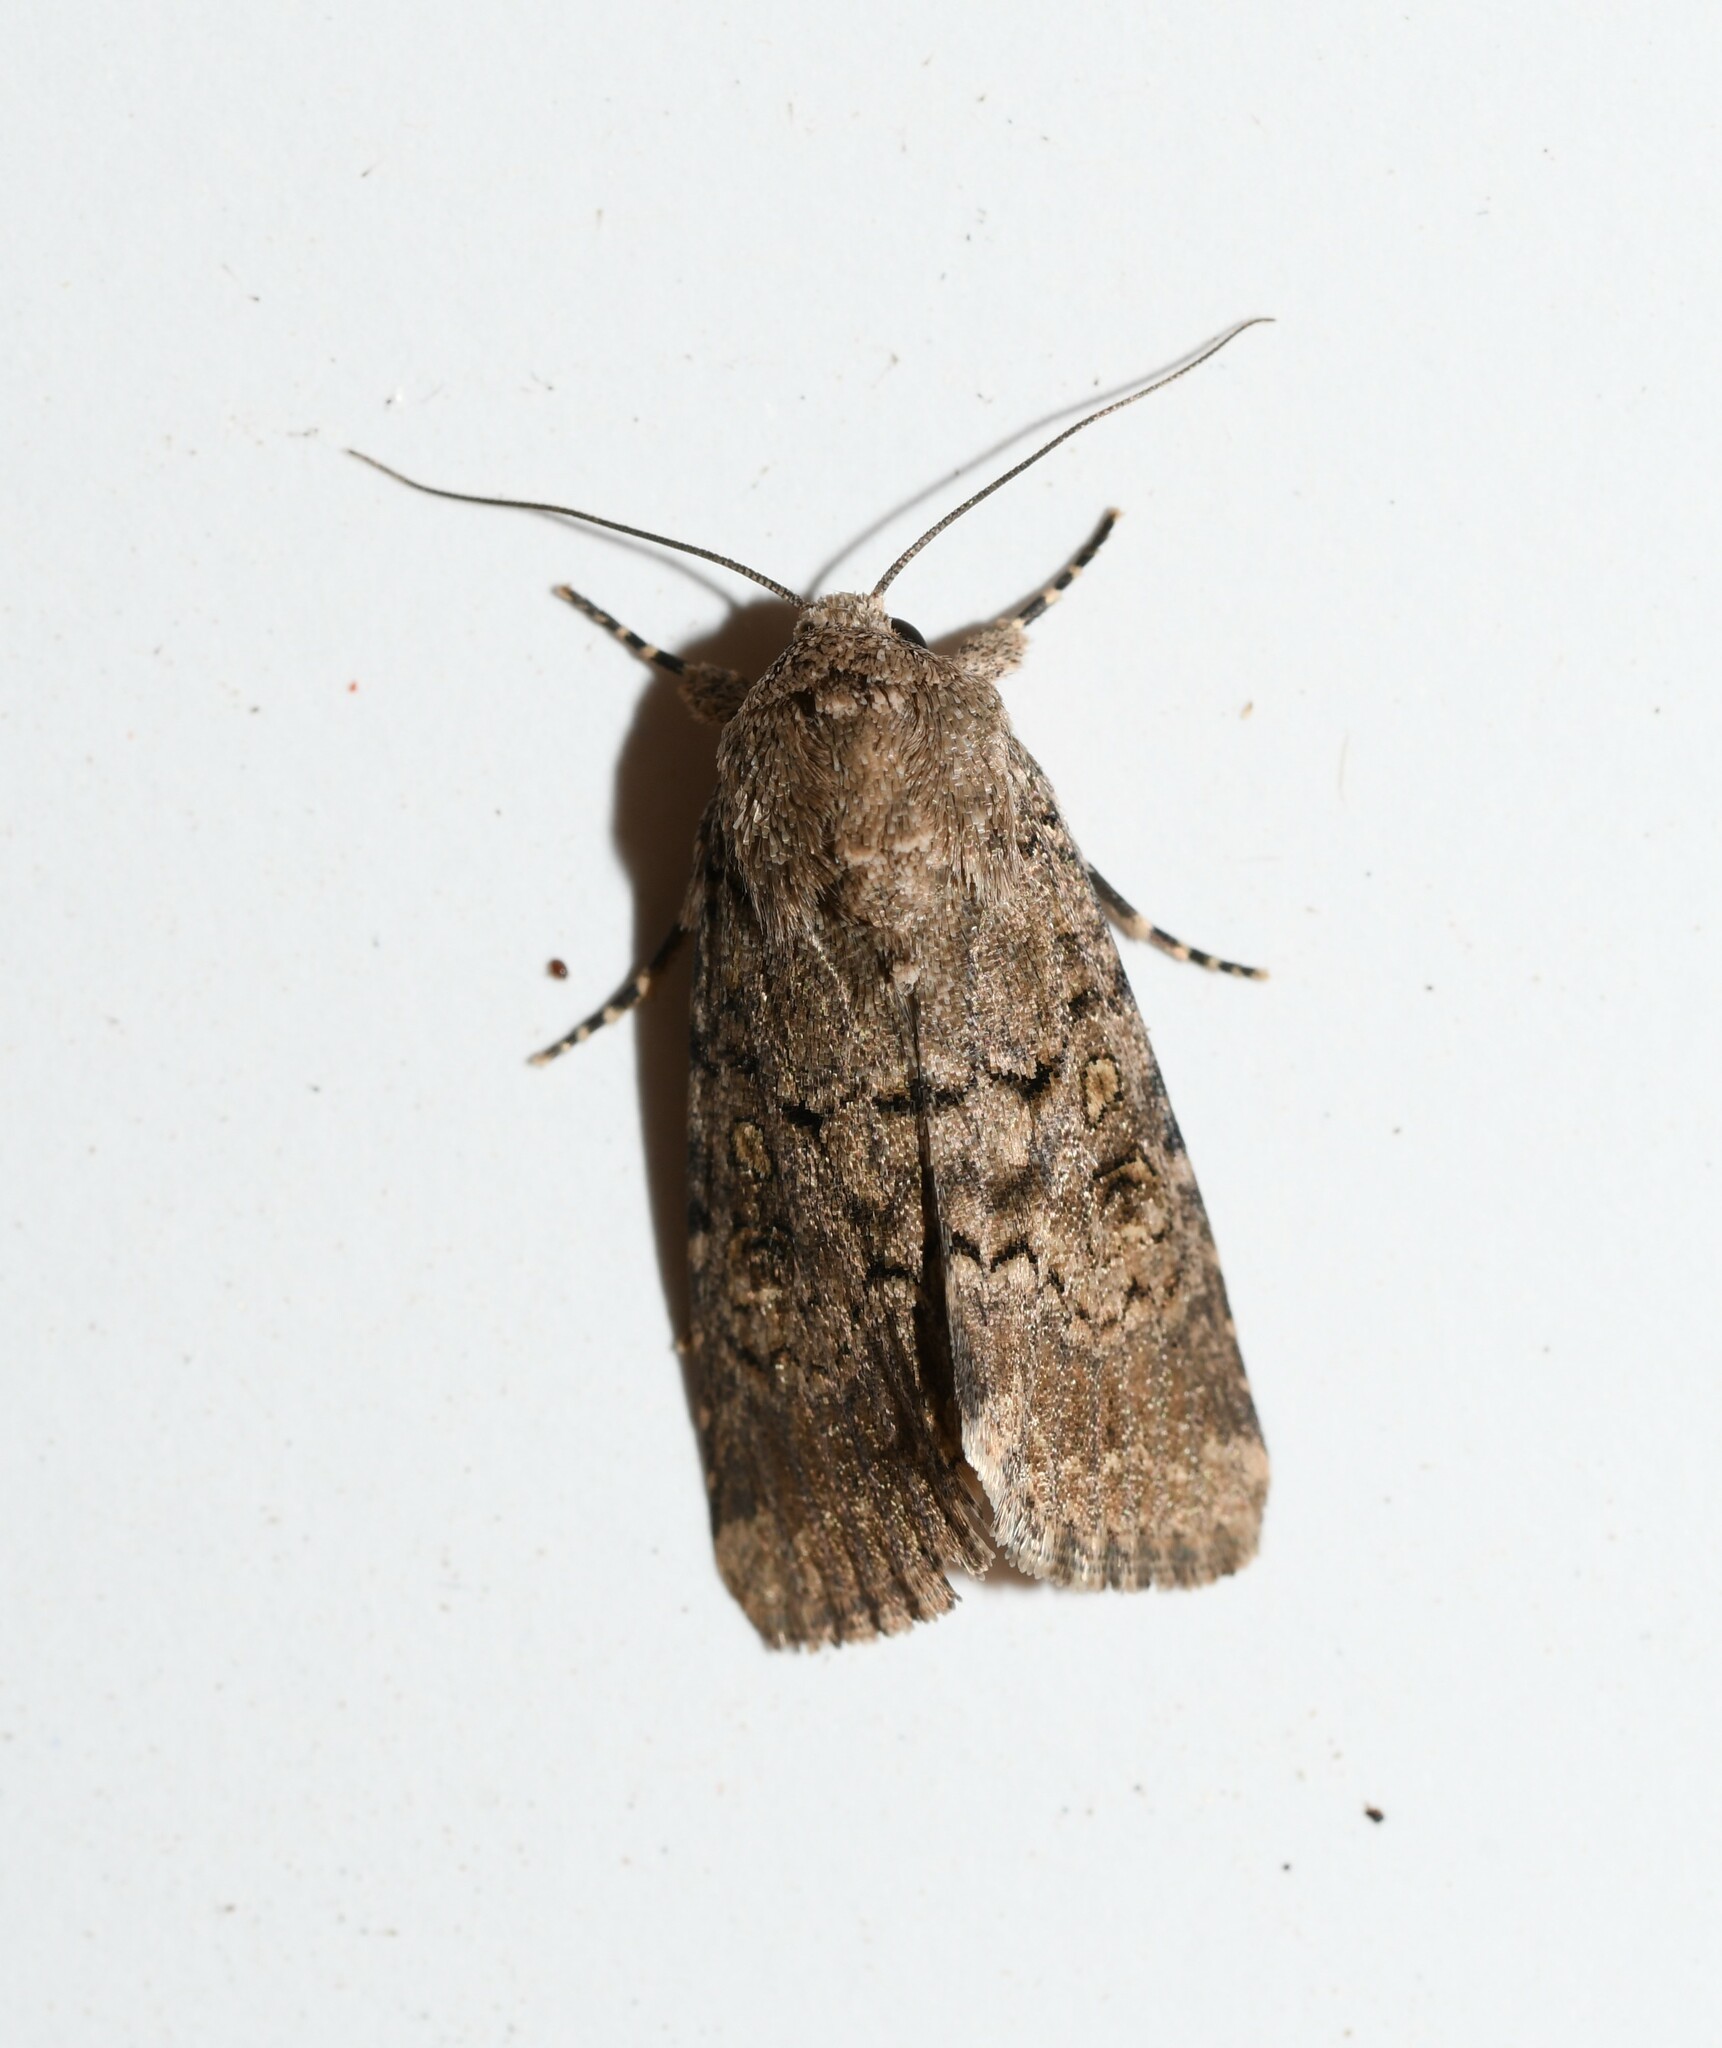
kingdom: Animalia
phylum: Arthropoda
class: Insecta
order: Lepidoptera
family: Noctuidae
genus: Spodoptera
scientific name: Spodoptera cilium
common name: Dark mottled willow
